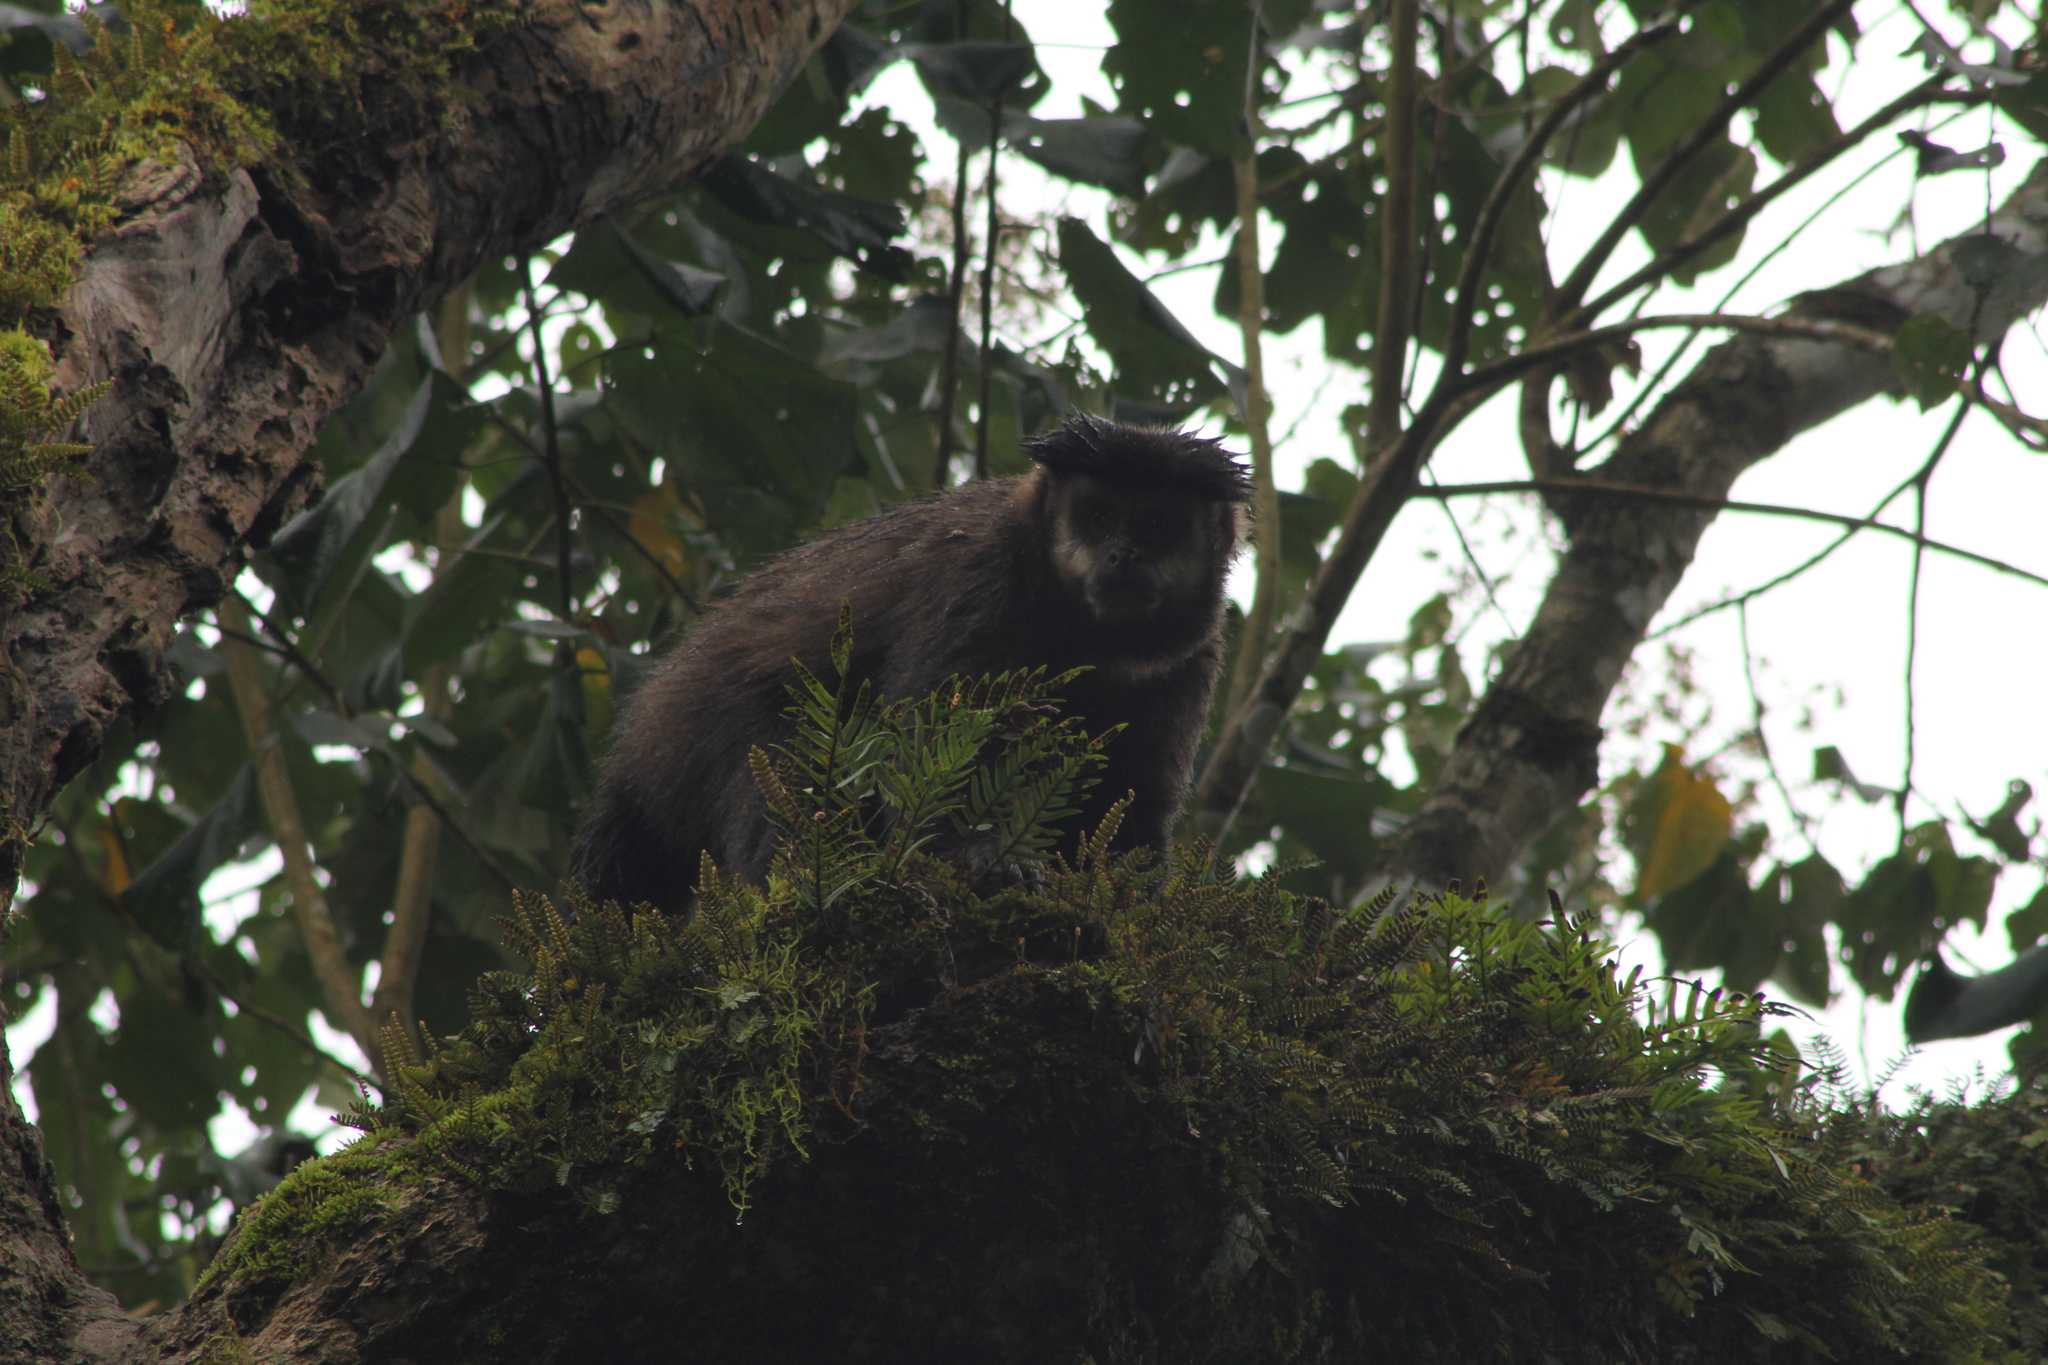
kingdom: Animalia
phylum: Chordata
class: Mammalia
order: Primates
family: Cebidae
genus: Sapajus
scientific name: Sapajus nigritus
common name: Black capuchin
